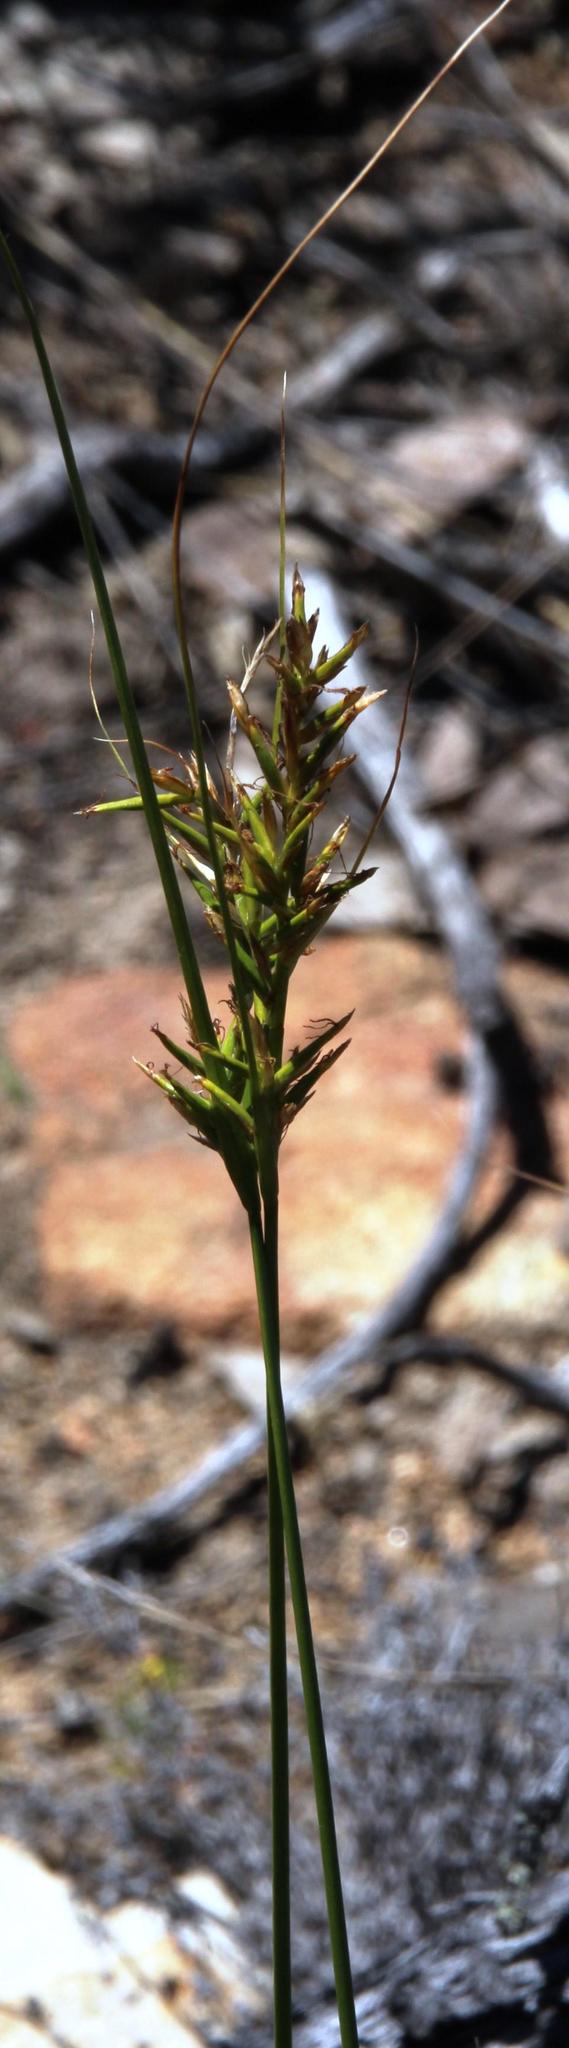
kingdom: Plantae
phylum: Tracheophyta
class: Liliopsida
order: Poales
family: Cyperaceae
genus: Carex
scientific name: Carex capensis
